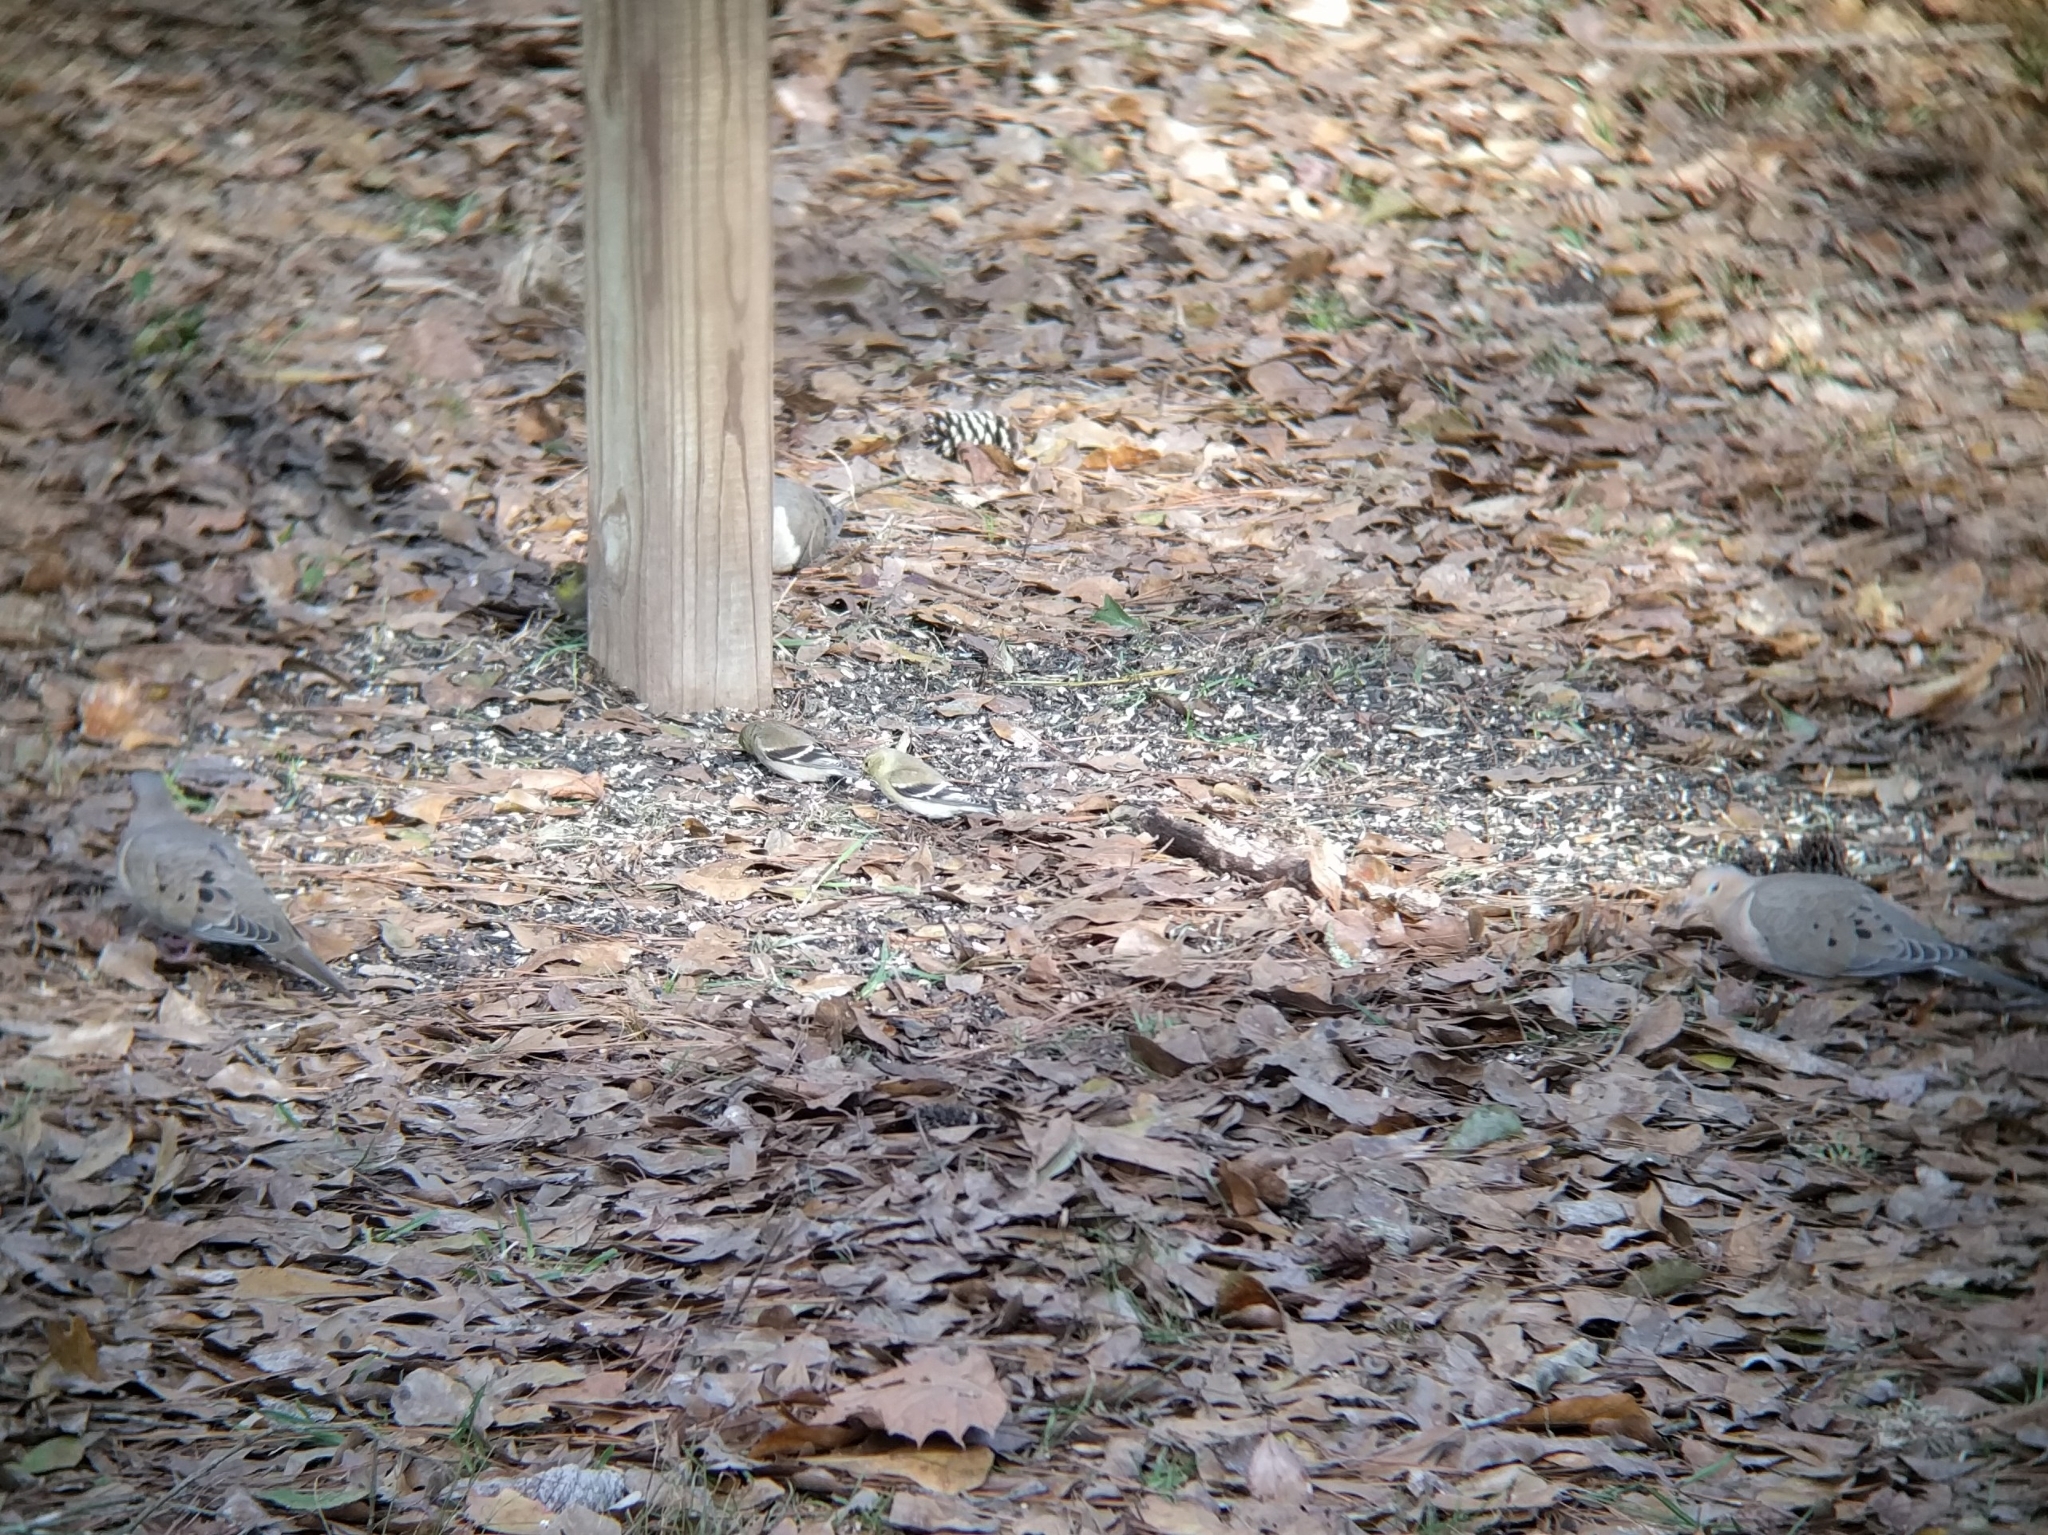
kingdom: Animalia
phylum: Chordata
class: Aves
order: Columbiformes
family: Columbidae
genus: Zenaida
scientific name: Zenaida macroura
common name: Mourning dove
